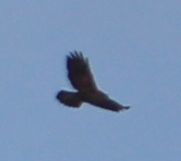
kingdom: Animalia
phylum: Chordata
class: Aves
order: Accipitriformes
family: Accipitridae
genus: Buteo
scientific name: Buteo buteo
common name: Common buzzard
